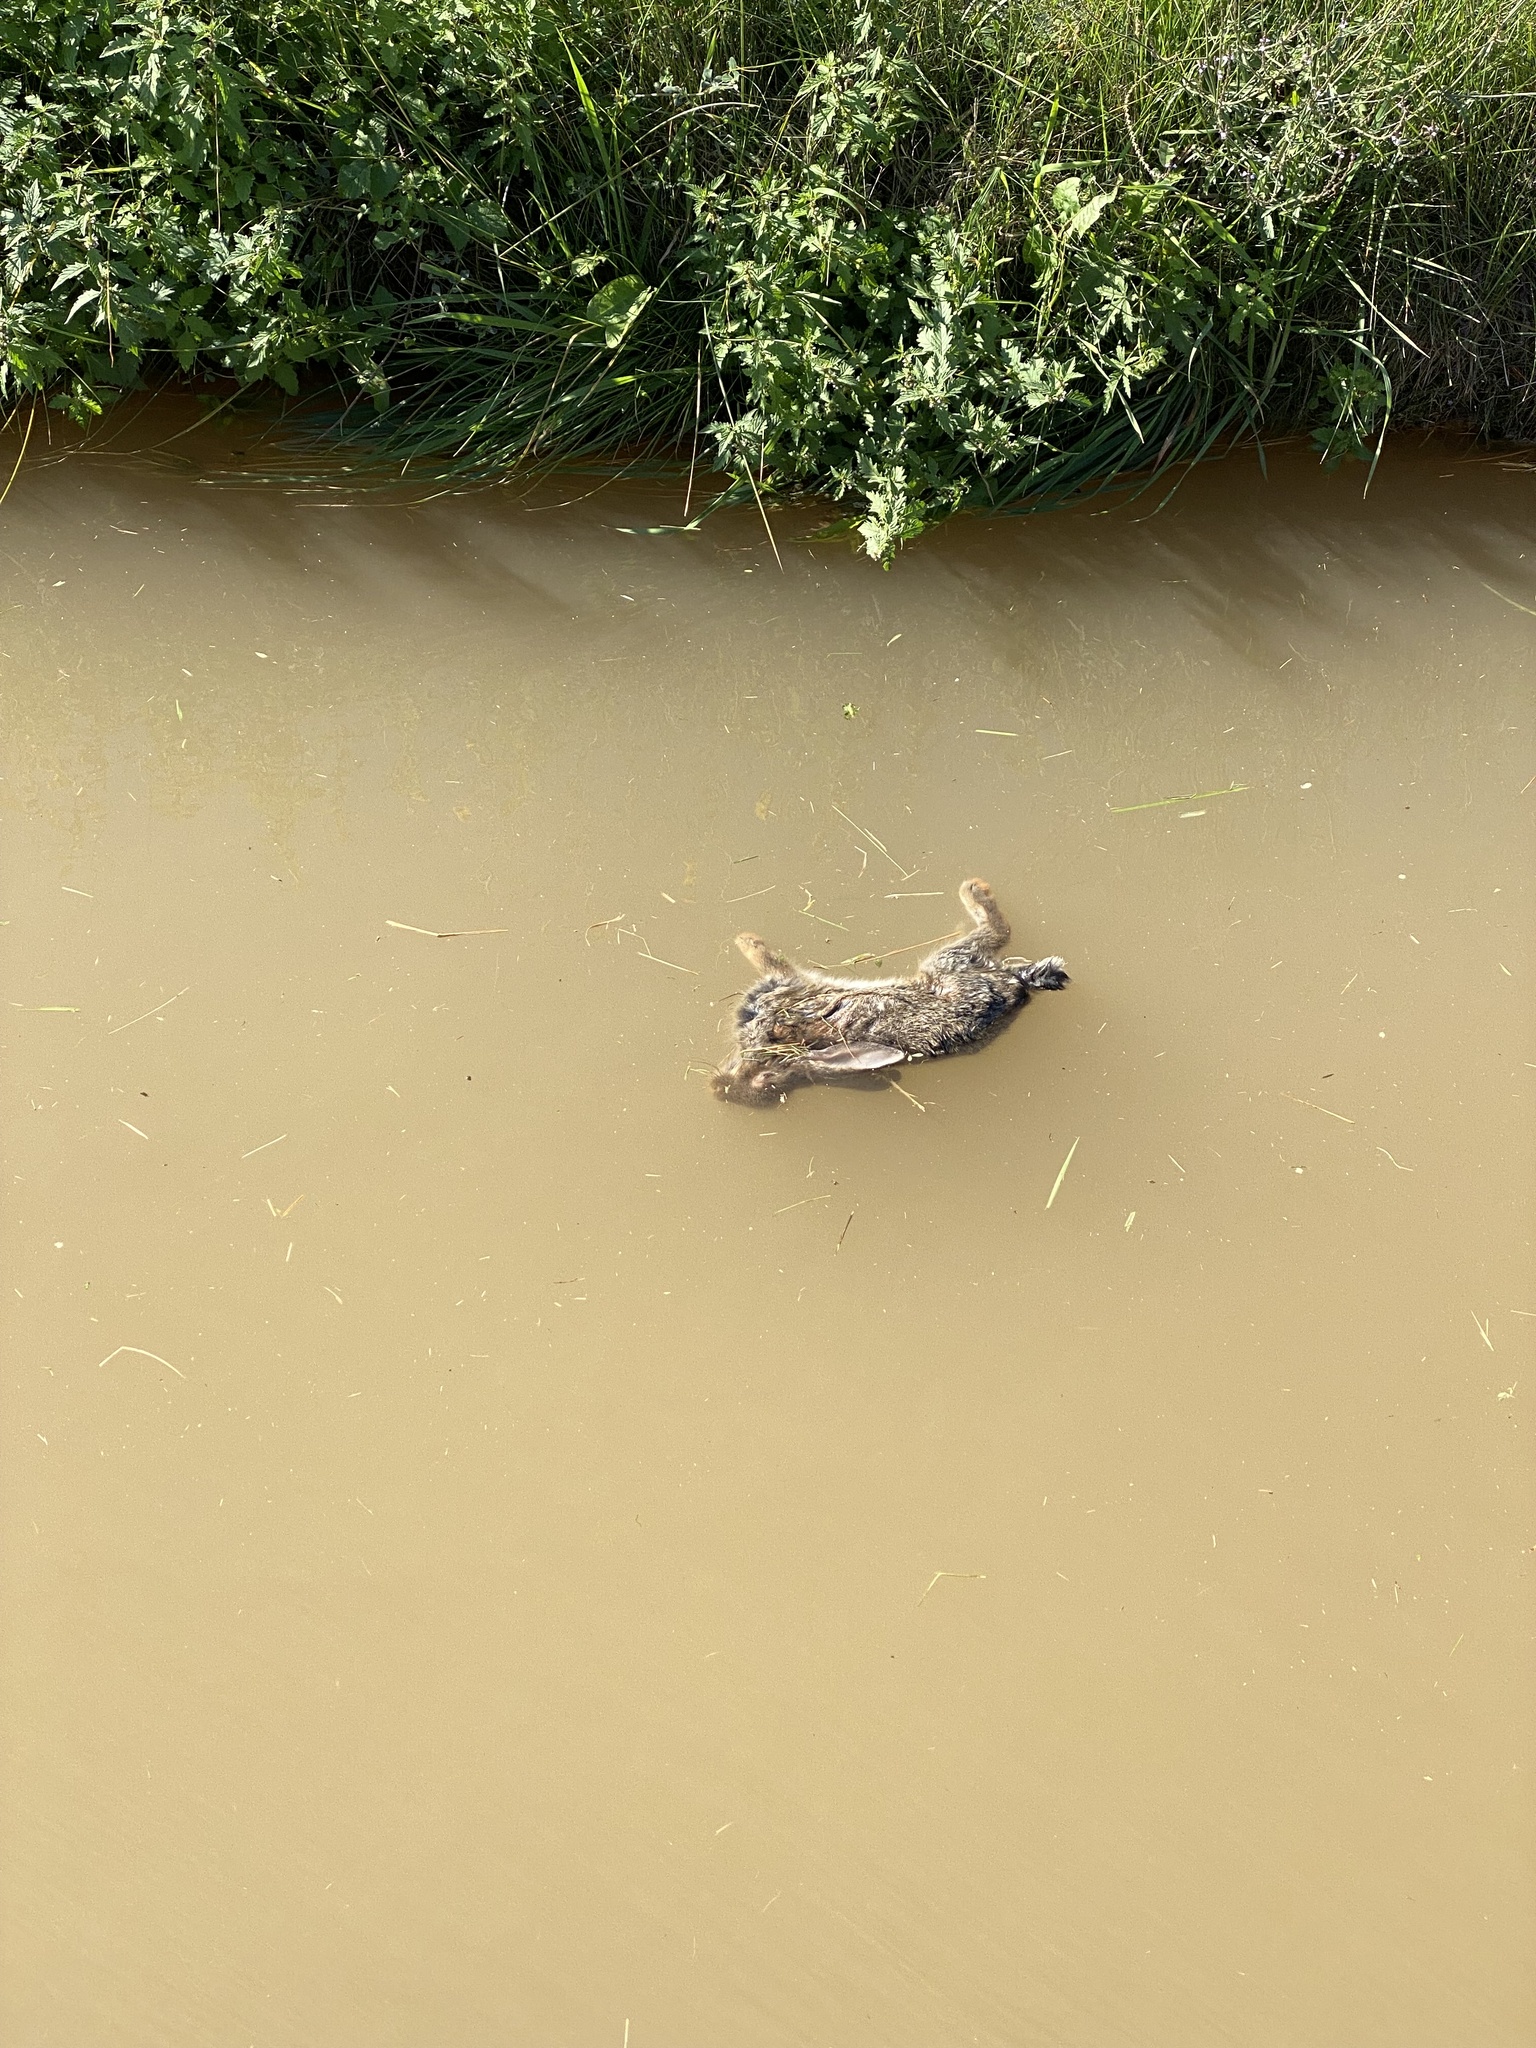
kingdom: Animalia
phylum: Chordata
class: Mammalia
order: Lagomorpha
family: Leporidae
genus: Oryctolagus
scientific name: Oryctolagus cuniculus
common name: European rabbit
